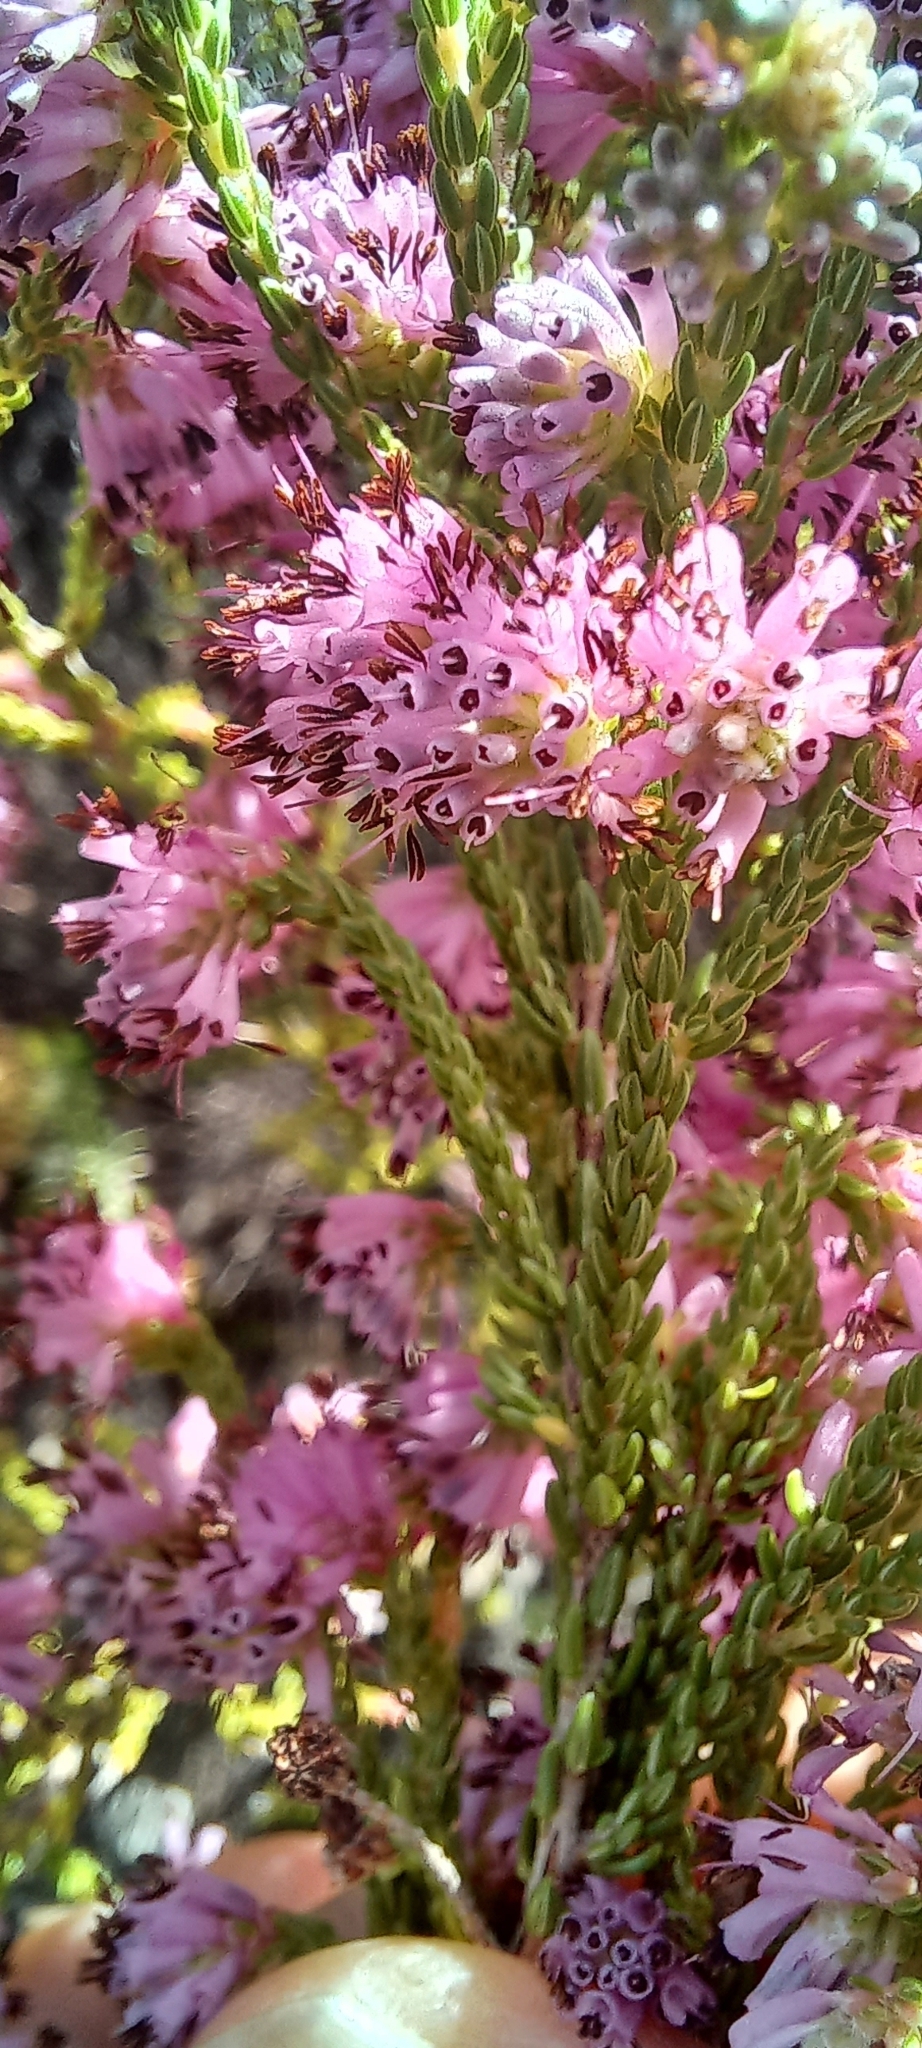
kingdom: Plantae
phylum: Tracheophyta
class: Magnoliopsida
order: Ericales
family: Ericaceae
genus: Erica
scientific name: Erica labialis
